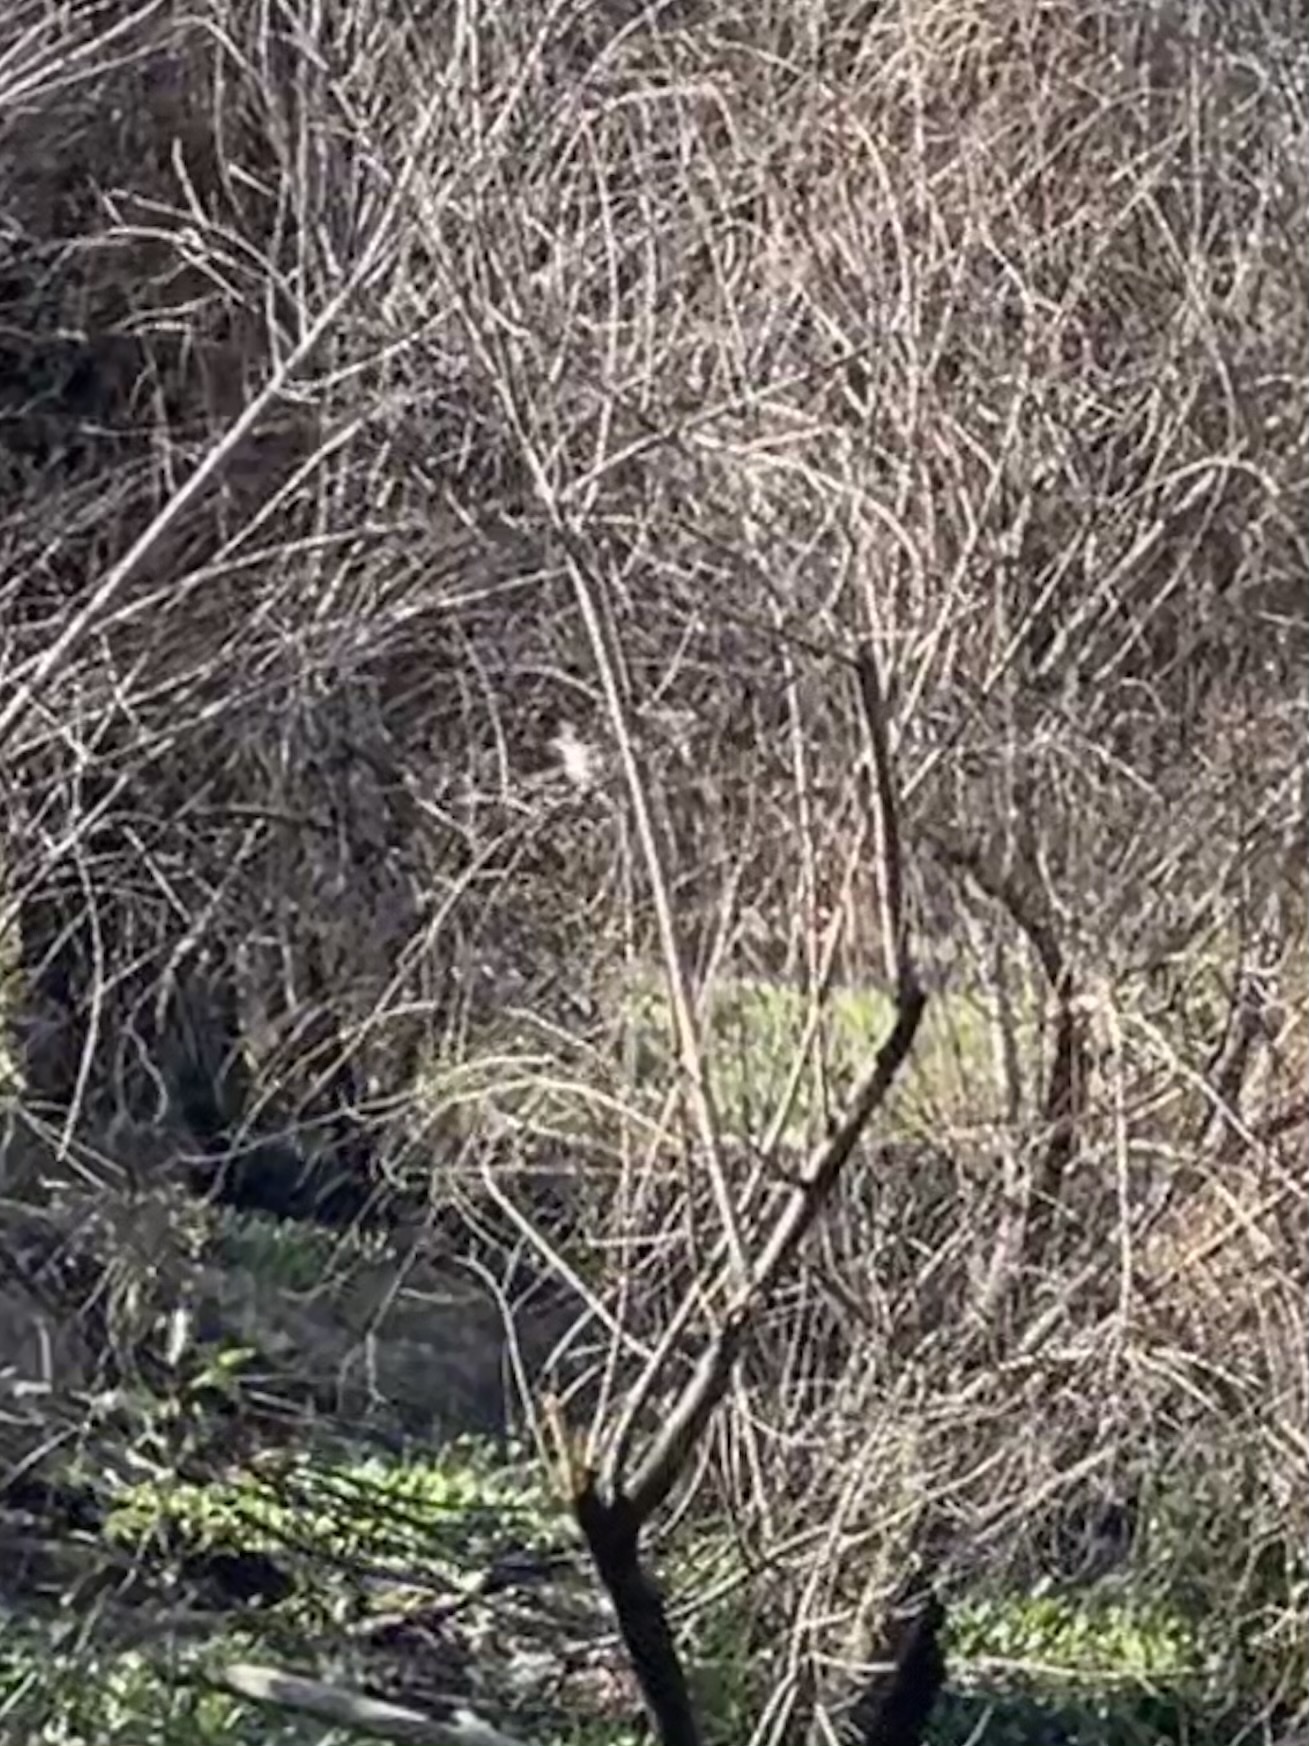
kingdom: Animalia
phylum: Chordata
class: Aves
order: Coraciiformes
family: Alcedinidae
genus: Megaceryle
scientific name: Megaceryle alcyon
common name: Belted kingfisher
